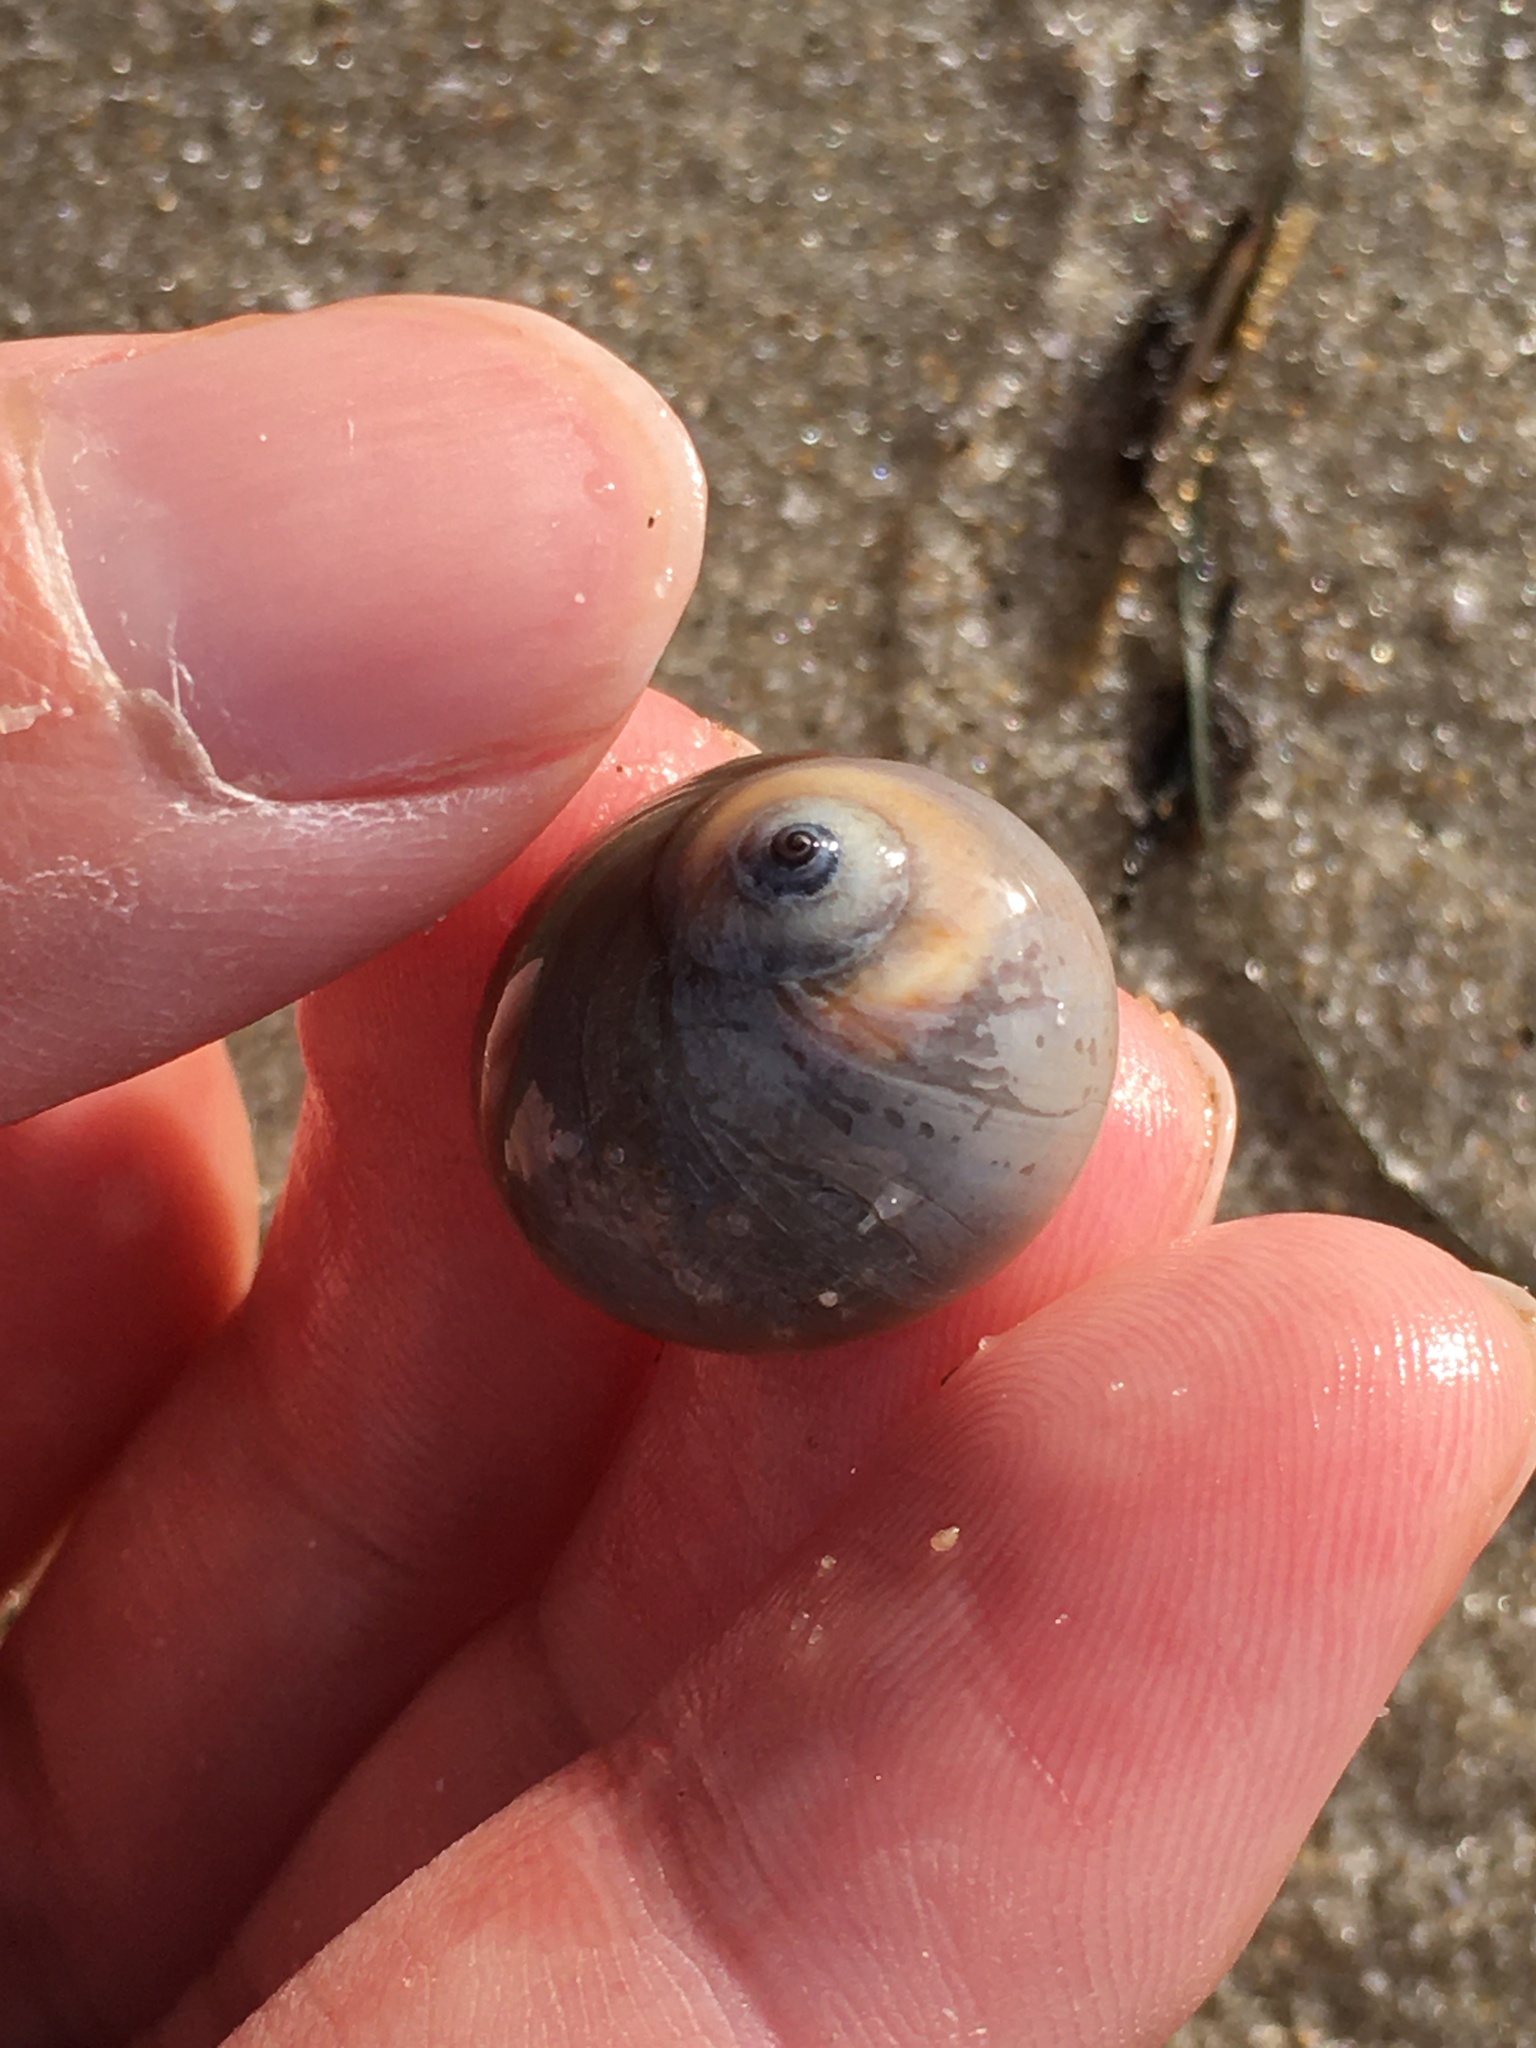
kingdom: Animalia
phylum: Arthropoda
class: Malacostraca
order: Decapoda
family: Paguridae
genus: Pagurus
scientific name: Pagurus longicarpus
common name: Long-armed hermit crab
